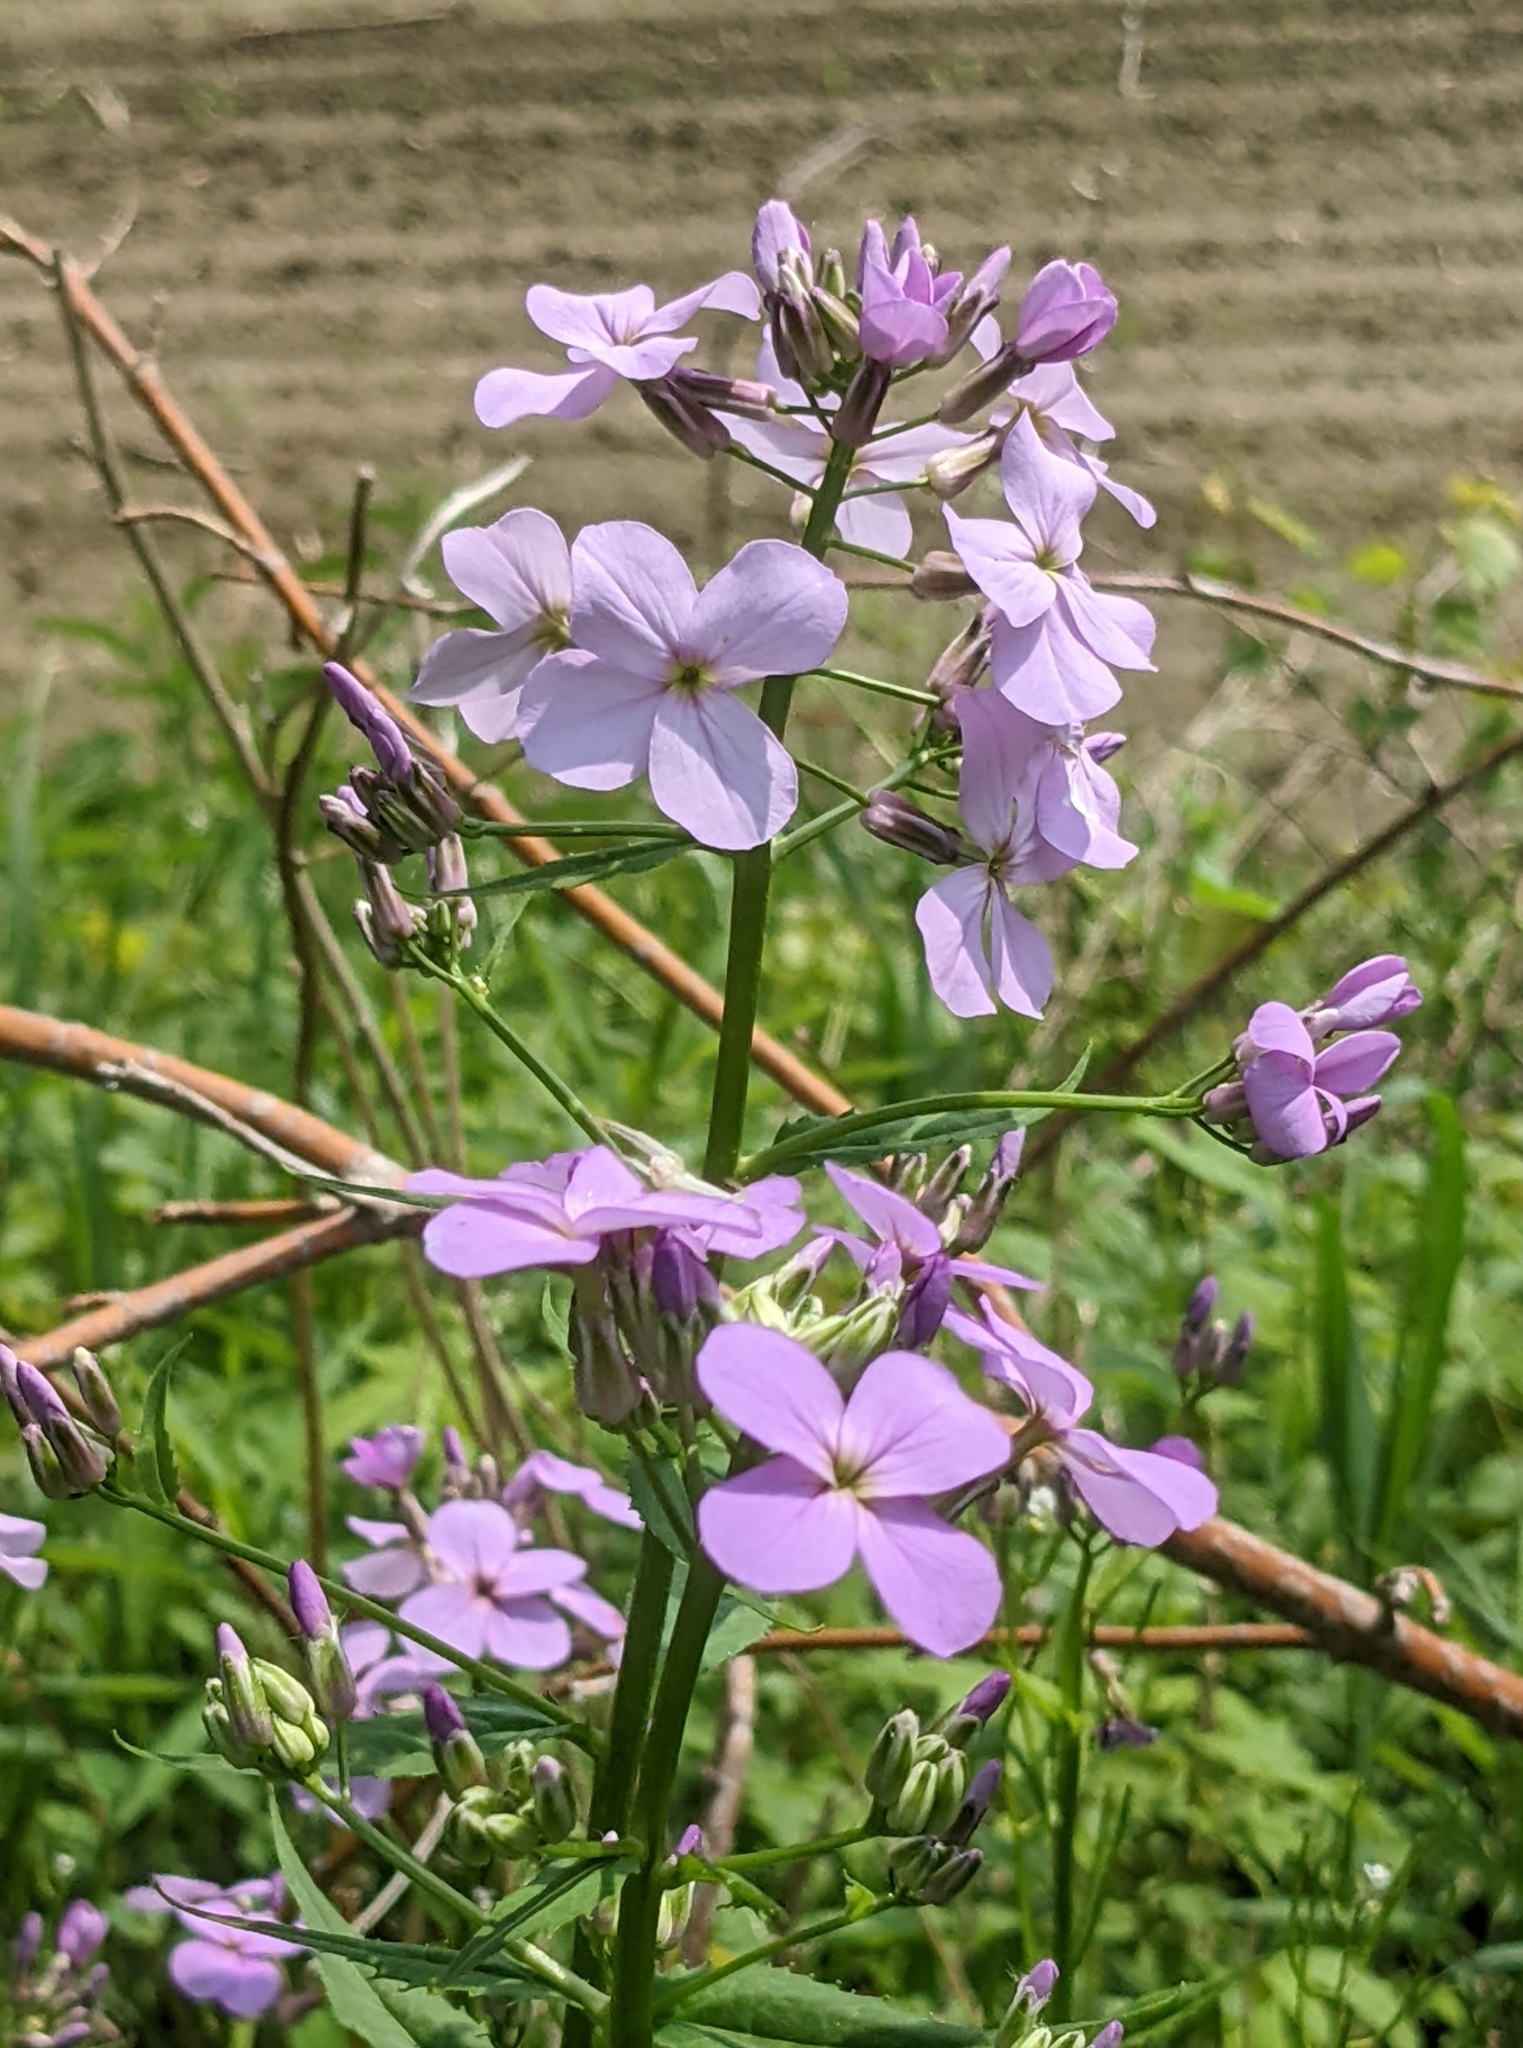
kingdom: Plantae
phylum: Tracheophyta
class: Magnoliopsida
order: Brassicales
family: Brassicaceae
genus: Hesperis
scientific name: Hesperis matronalis
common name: Dame's-violet
